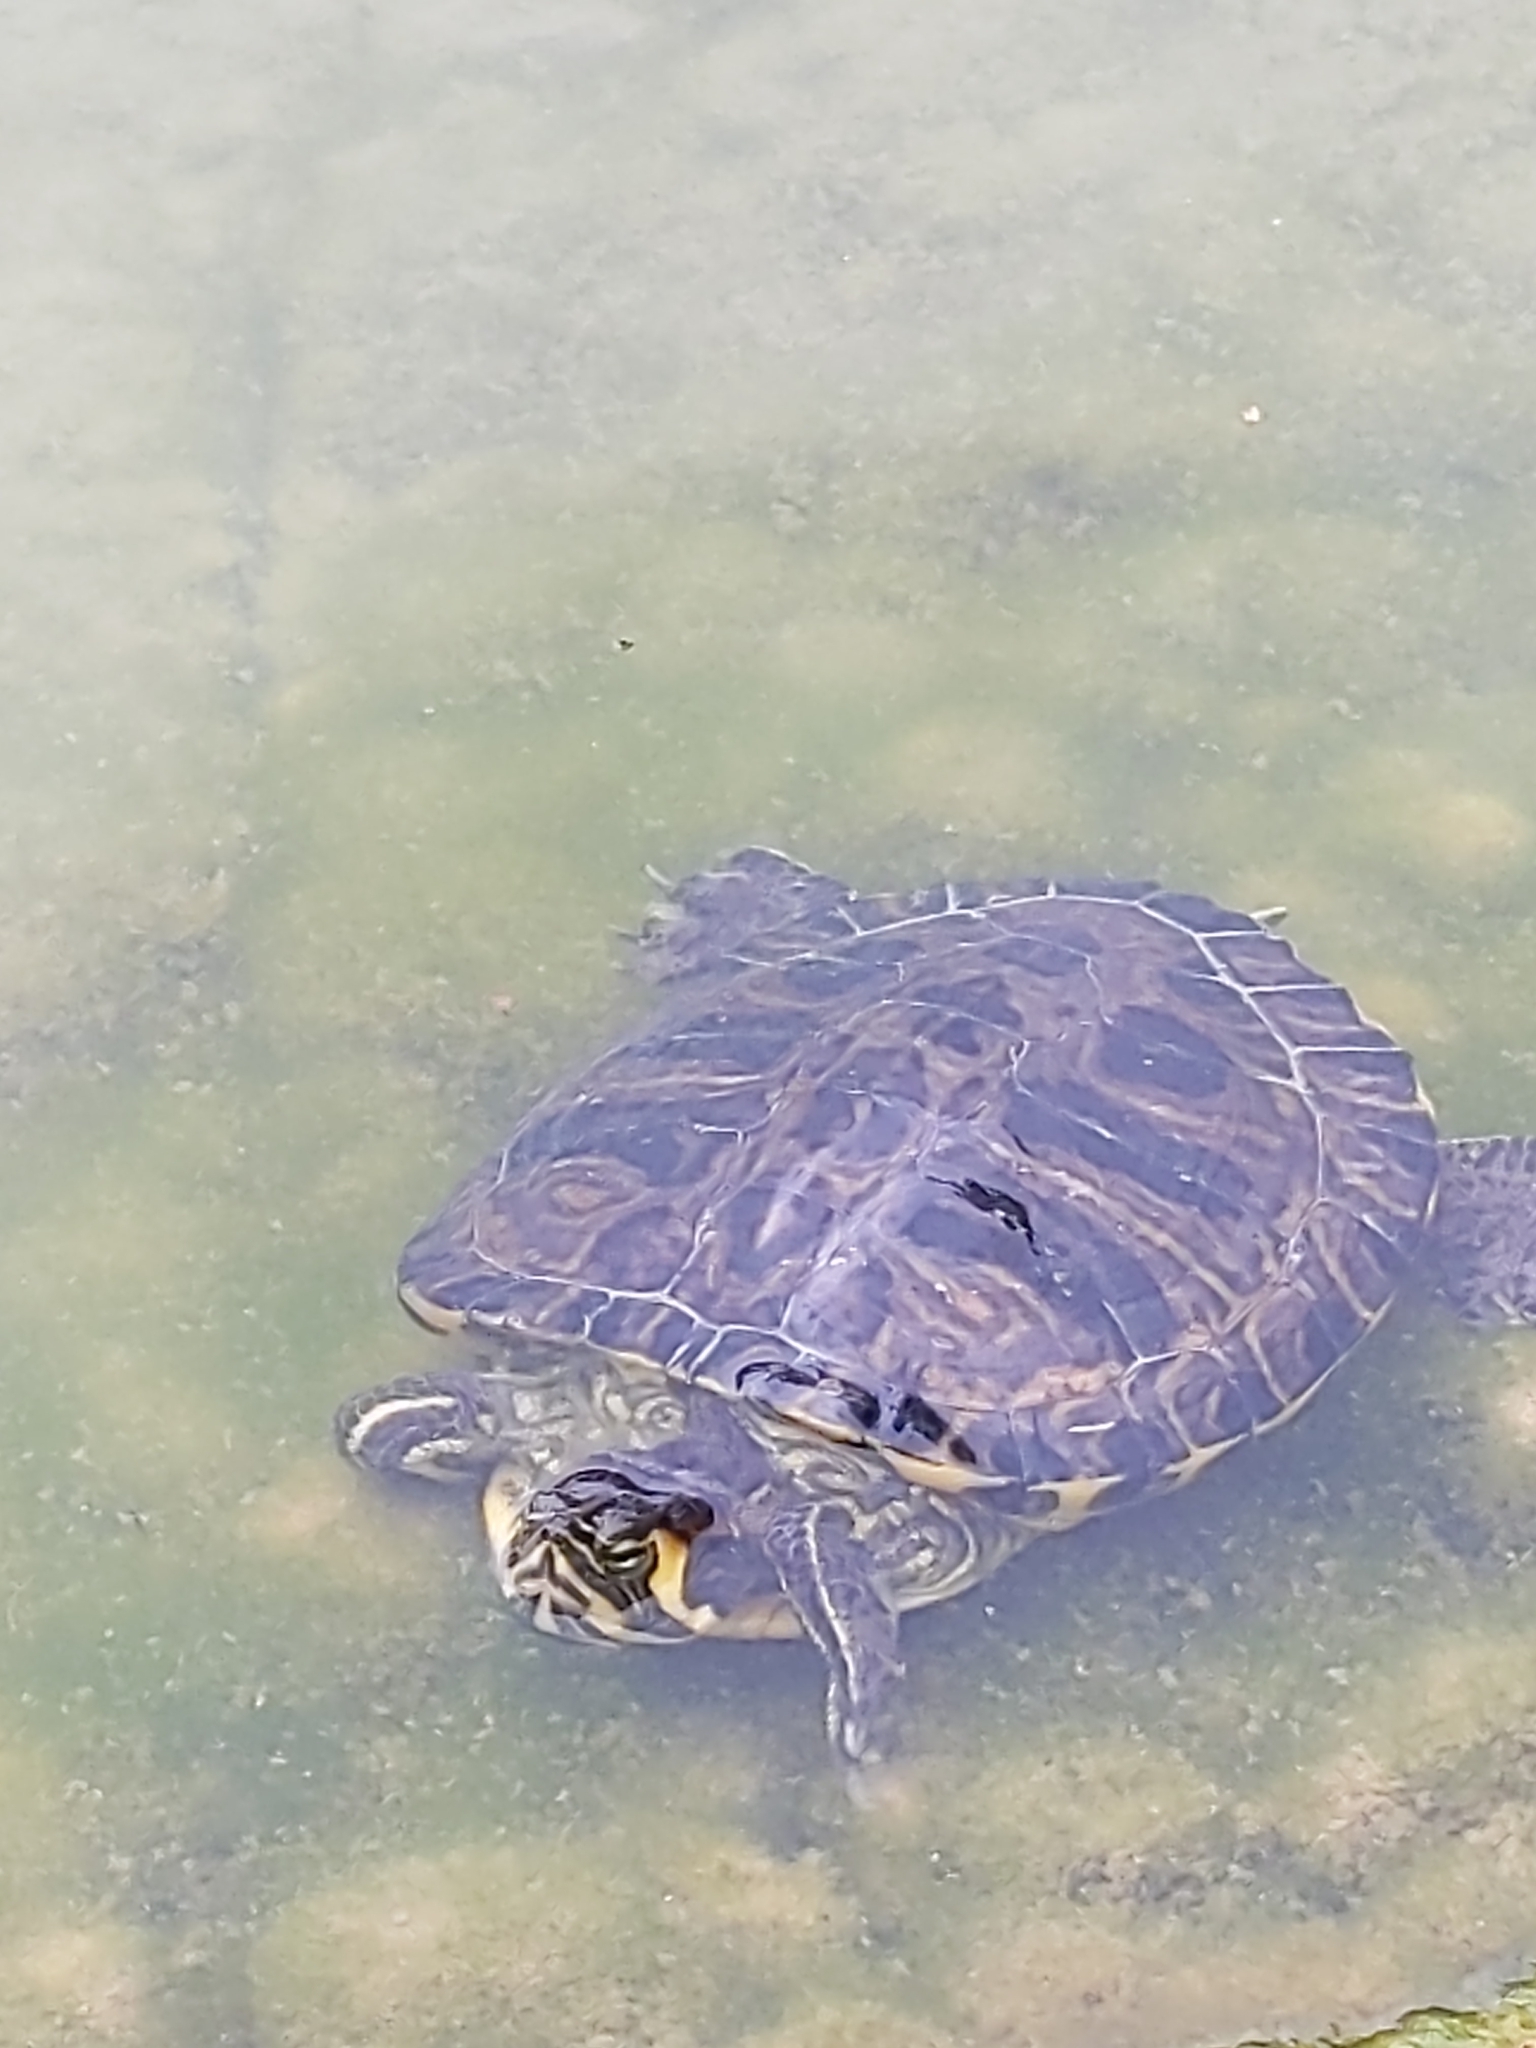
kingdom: Animalia
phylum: Chordata
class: Testudines
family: Emydidae
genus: Trachemys
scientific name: Trachemys scripta
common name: Slider
